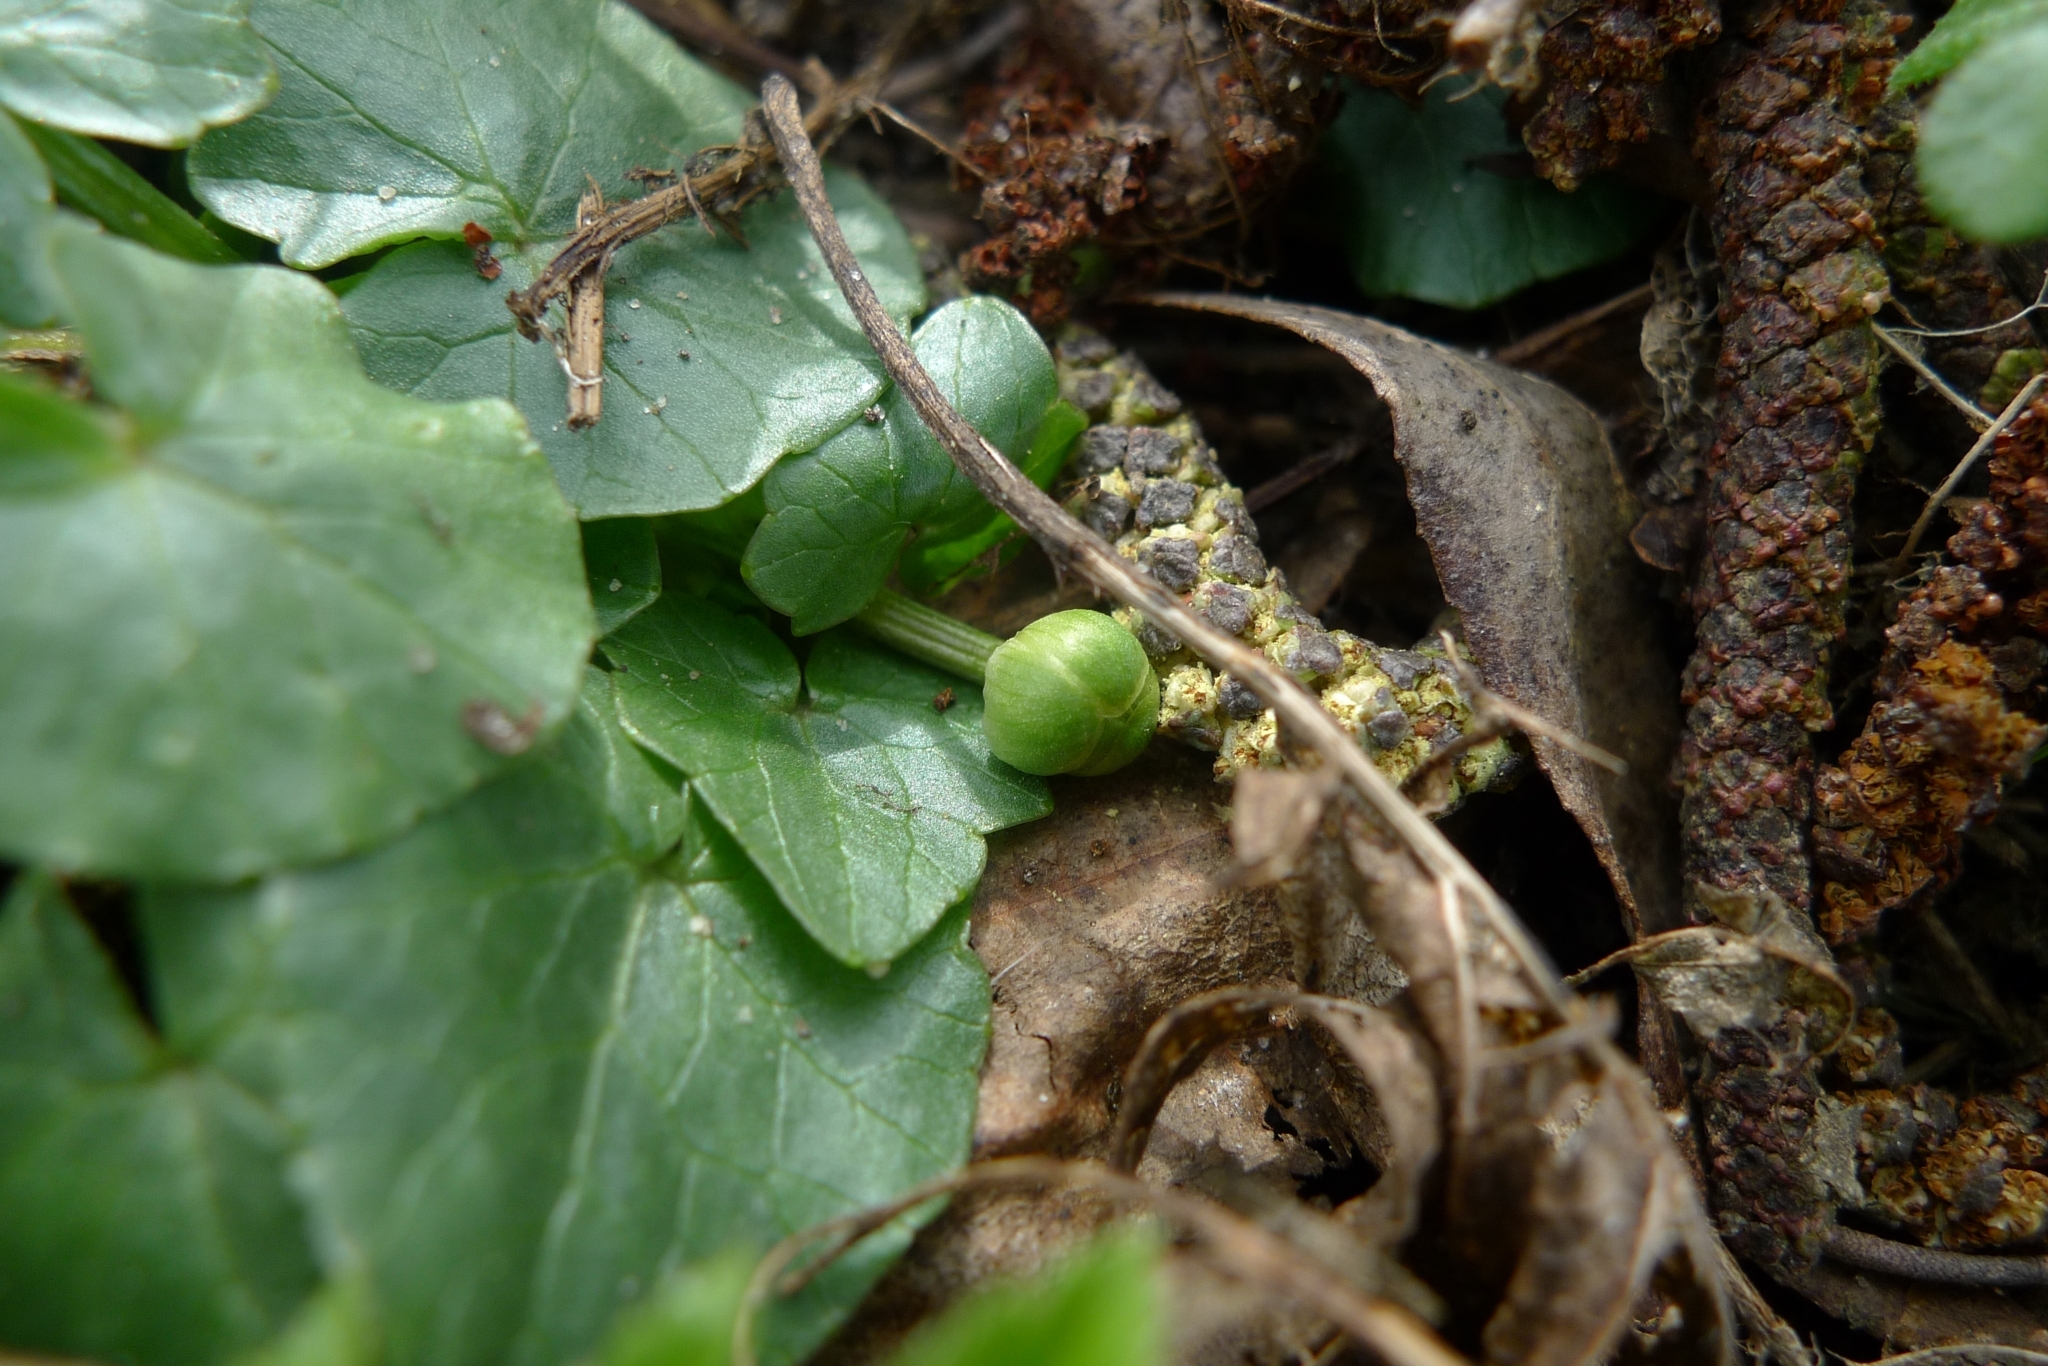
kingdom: Plantae
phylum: Tracheophyta
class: Magnoliopsida
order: Ranunculales
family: Ranunculaceae
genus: Ficaria
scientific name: Ficaria verna
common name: Lesser celandine
